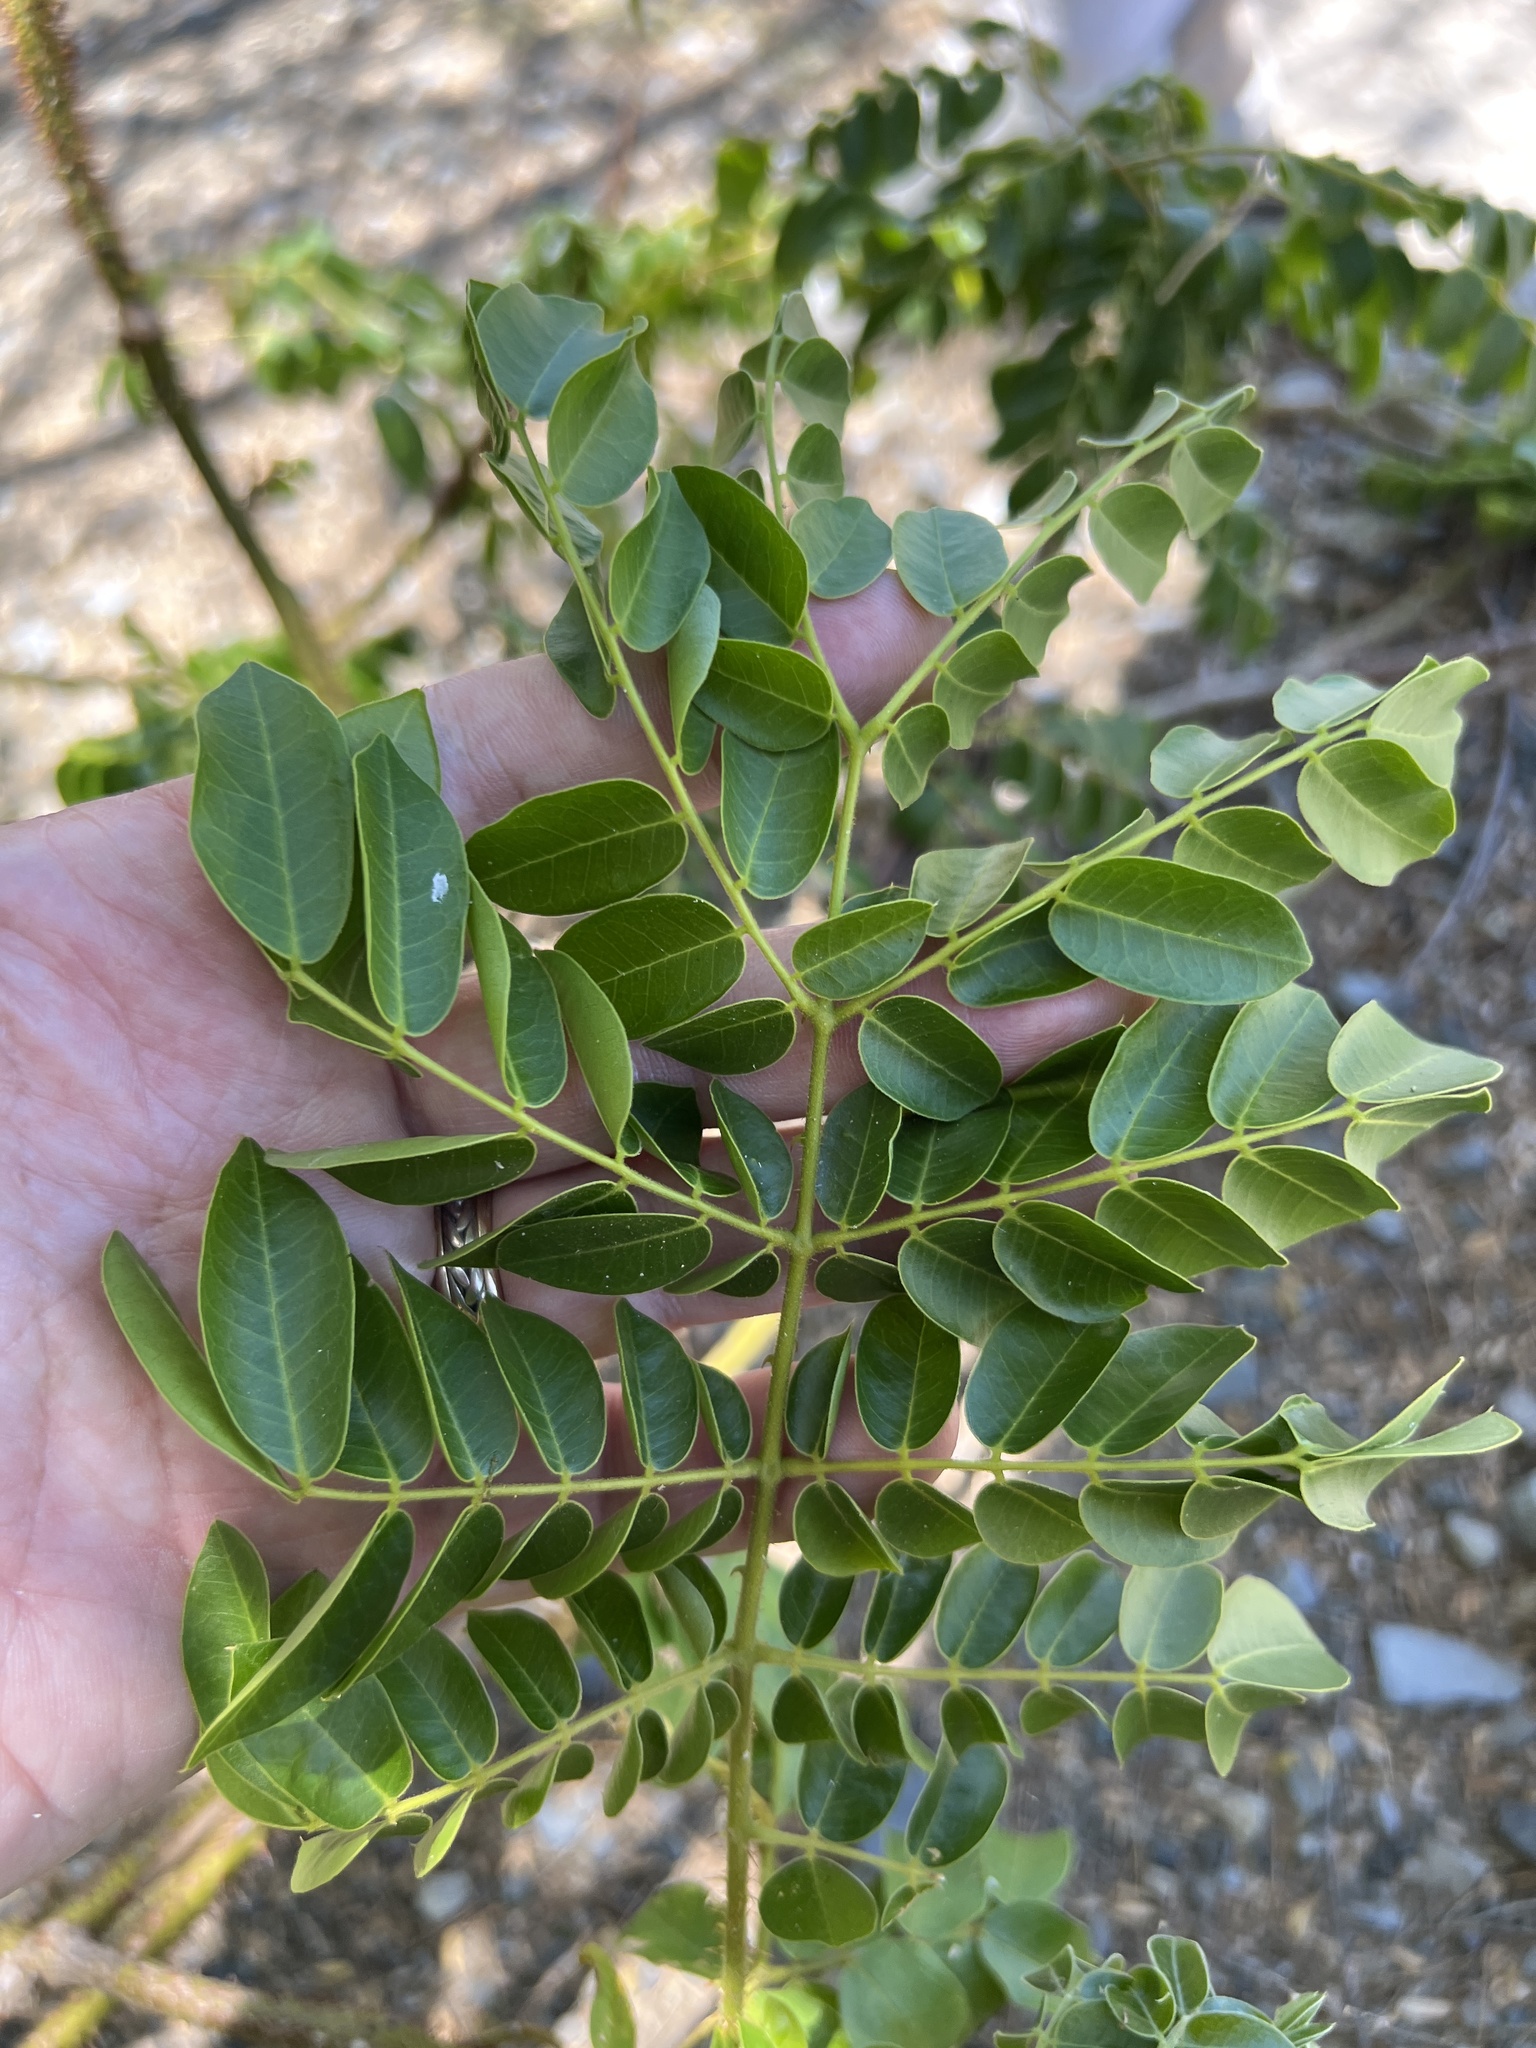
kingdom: Plantae
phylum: Tracheophyta
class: Magnoliopsida
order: Fabales
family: Fabaceae
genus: Guilandina
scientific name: Guilandina bonduc
